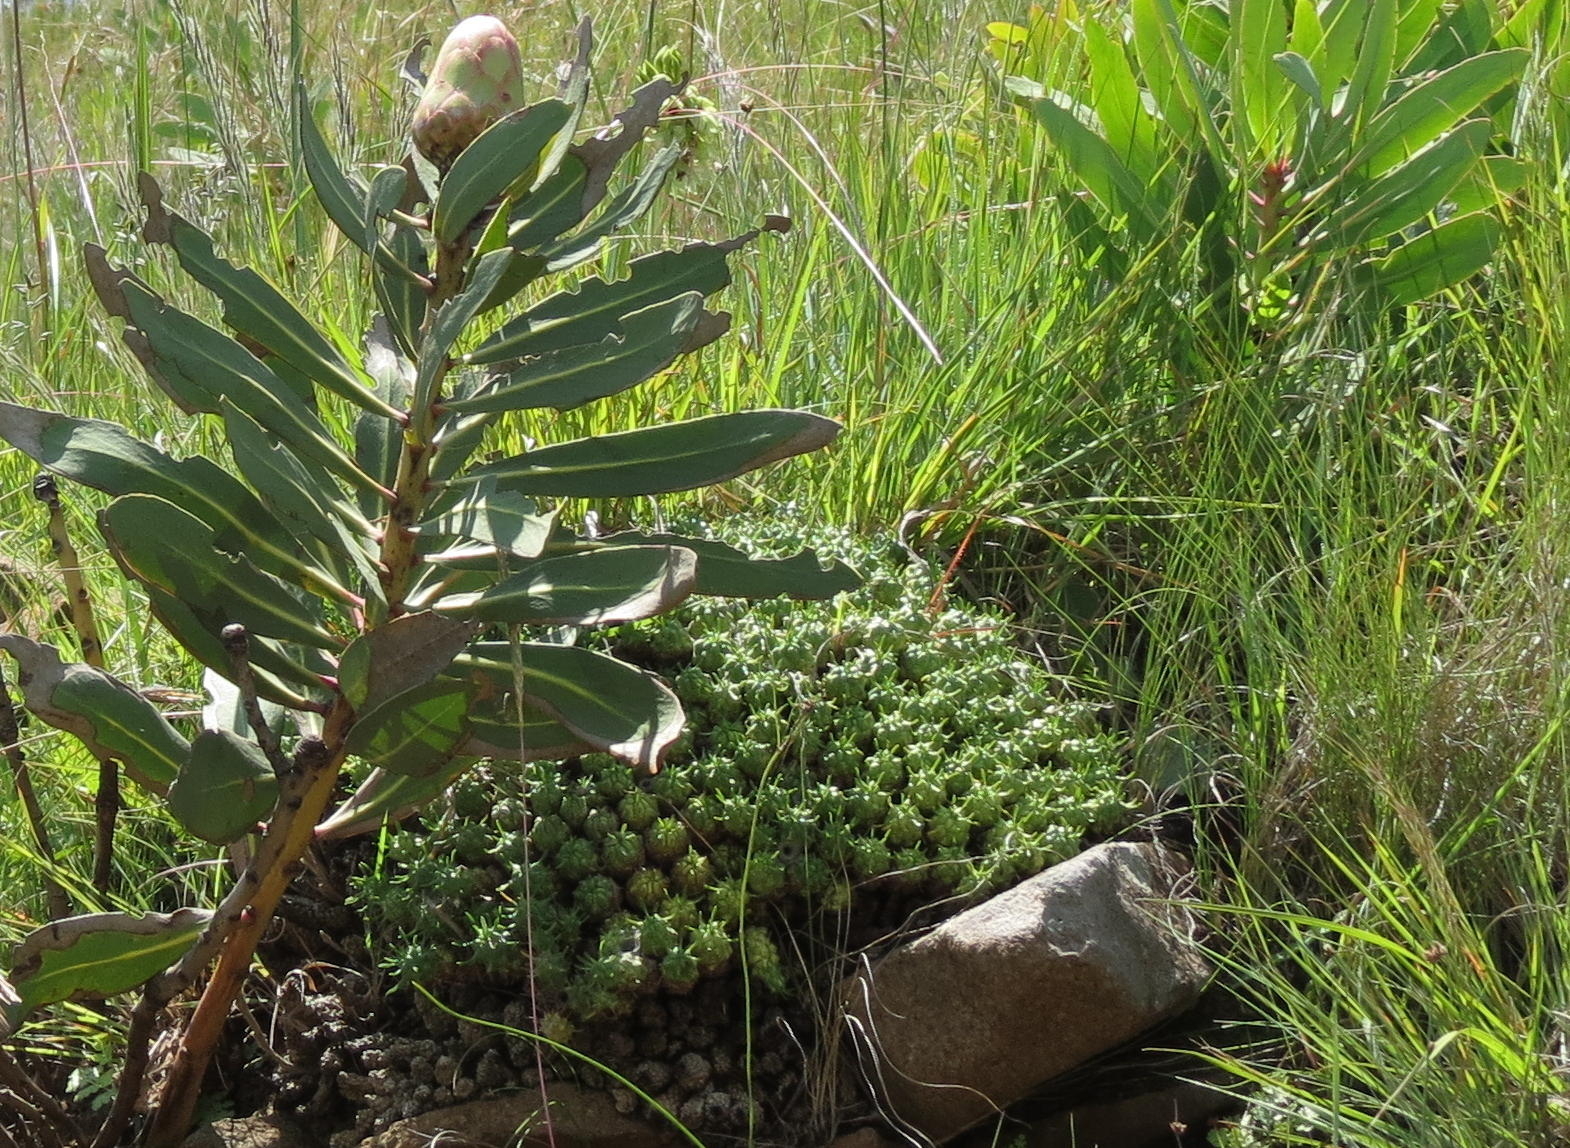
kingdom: Plantae
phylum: Tracheophyta
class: Magnoliopsida
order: Proteales
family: Proteaceae
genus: Protea
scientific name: Protea dracomontana
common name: Drakensberg dwarf sugarbush
